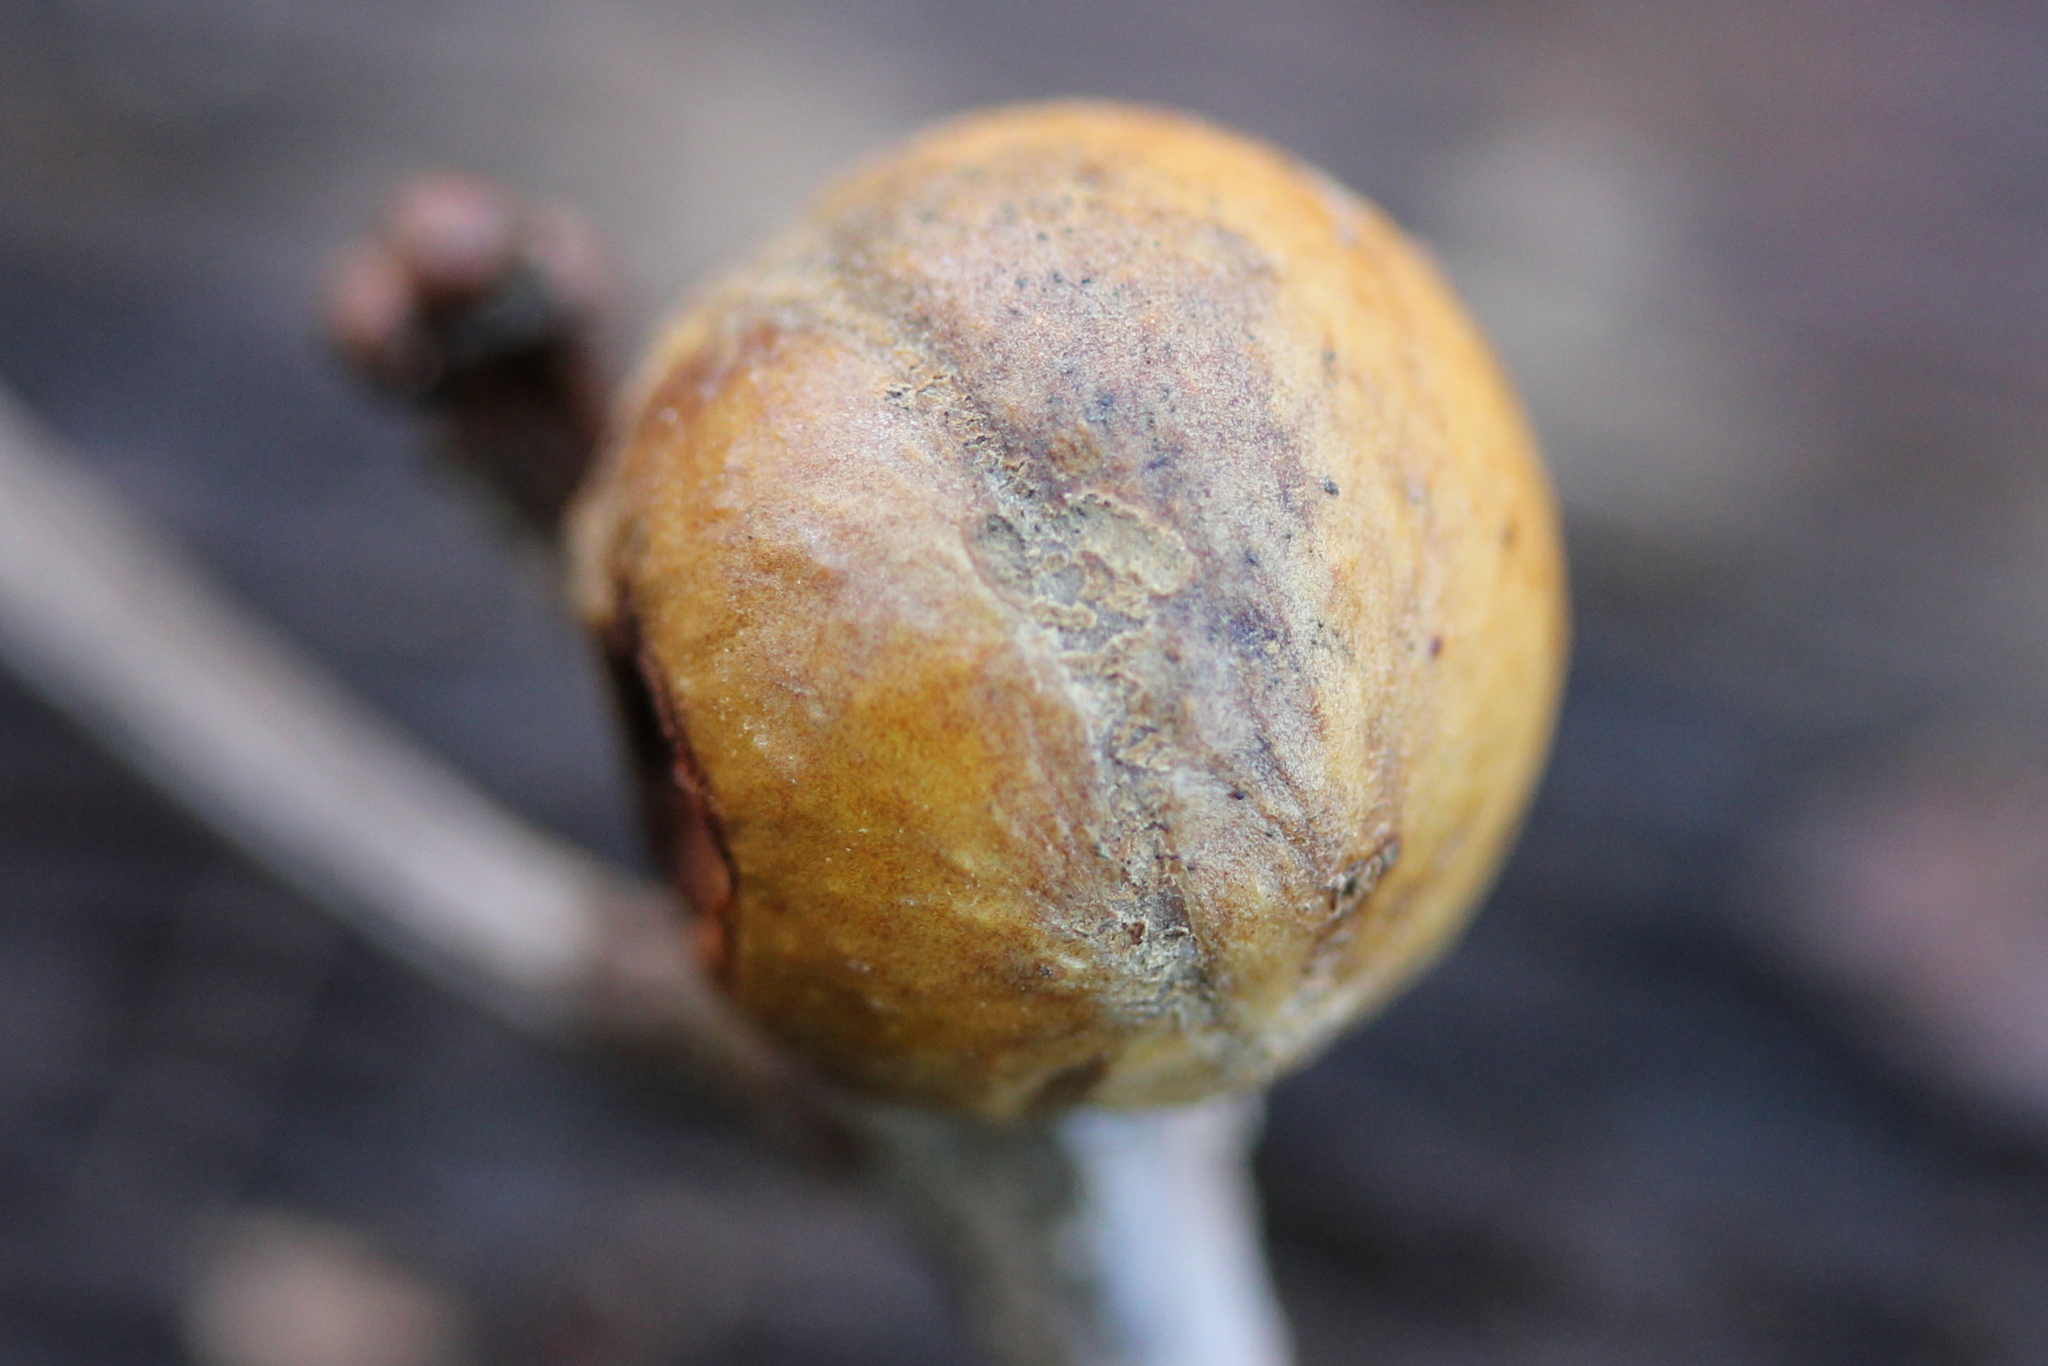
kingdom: Animalia
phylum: Arthropoda
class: Insecta
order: Hymenoptera
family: Cynipidae
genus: Disholcaspis
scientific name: Disholcaspis quercusglobulus
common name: Round bullet gall wasp
